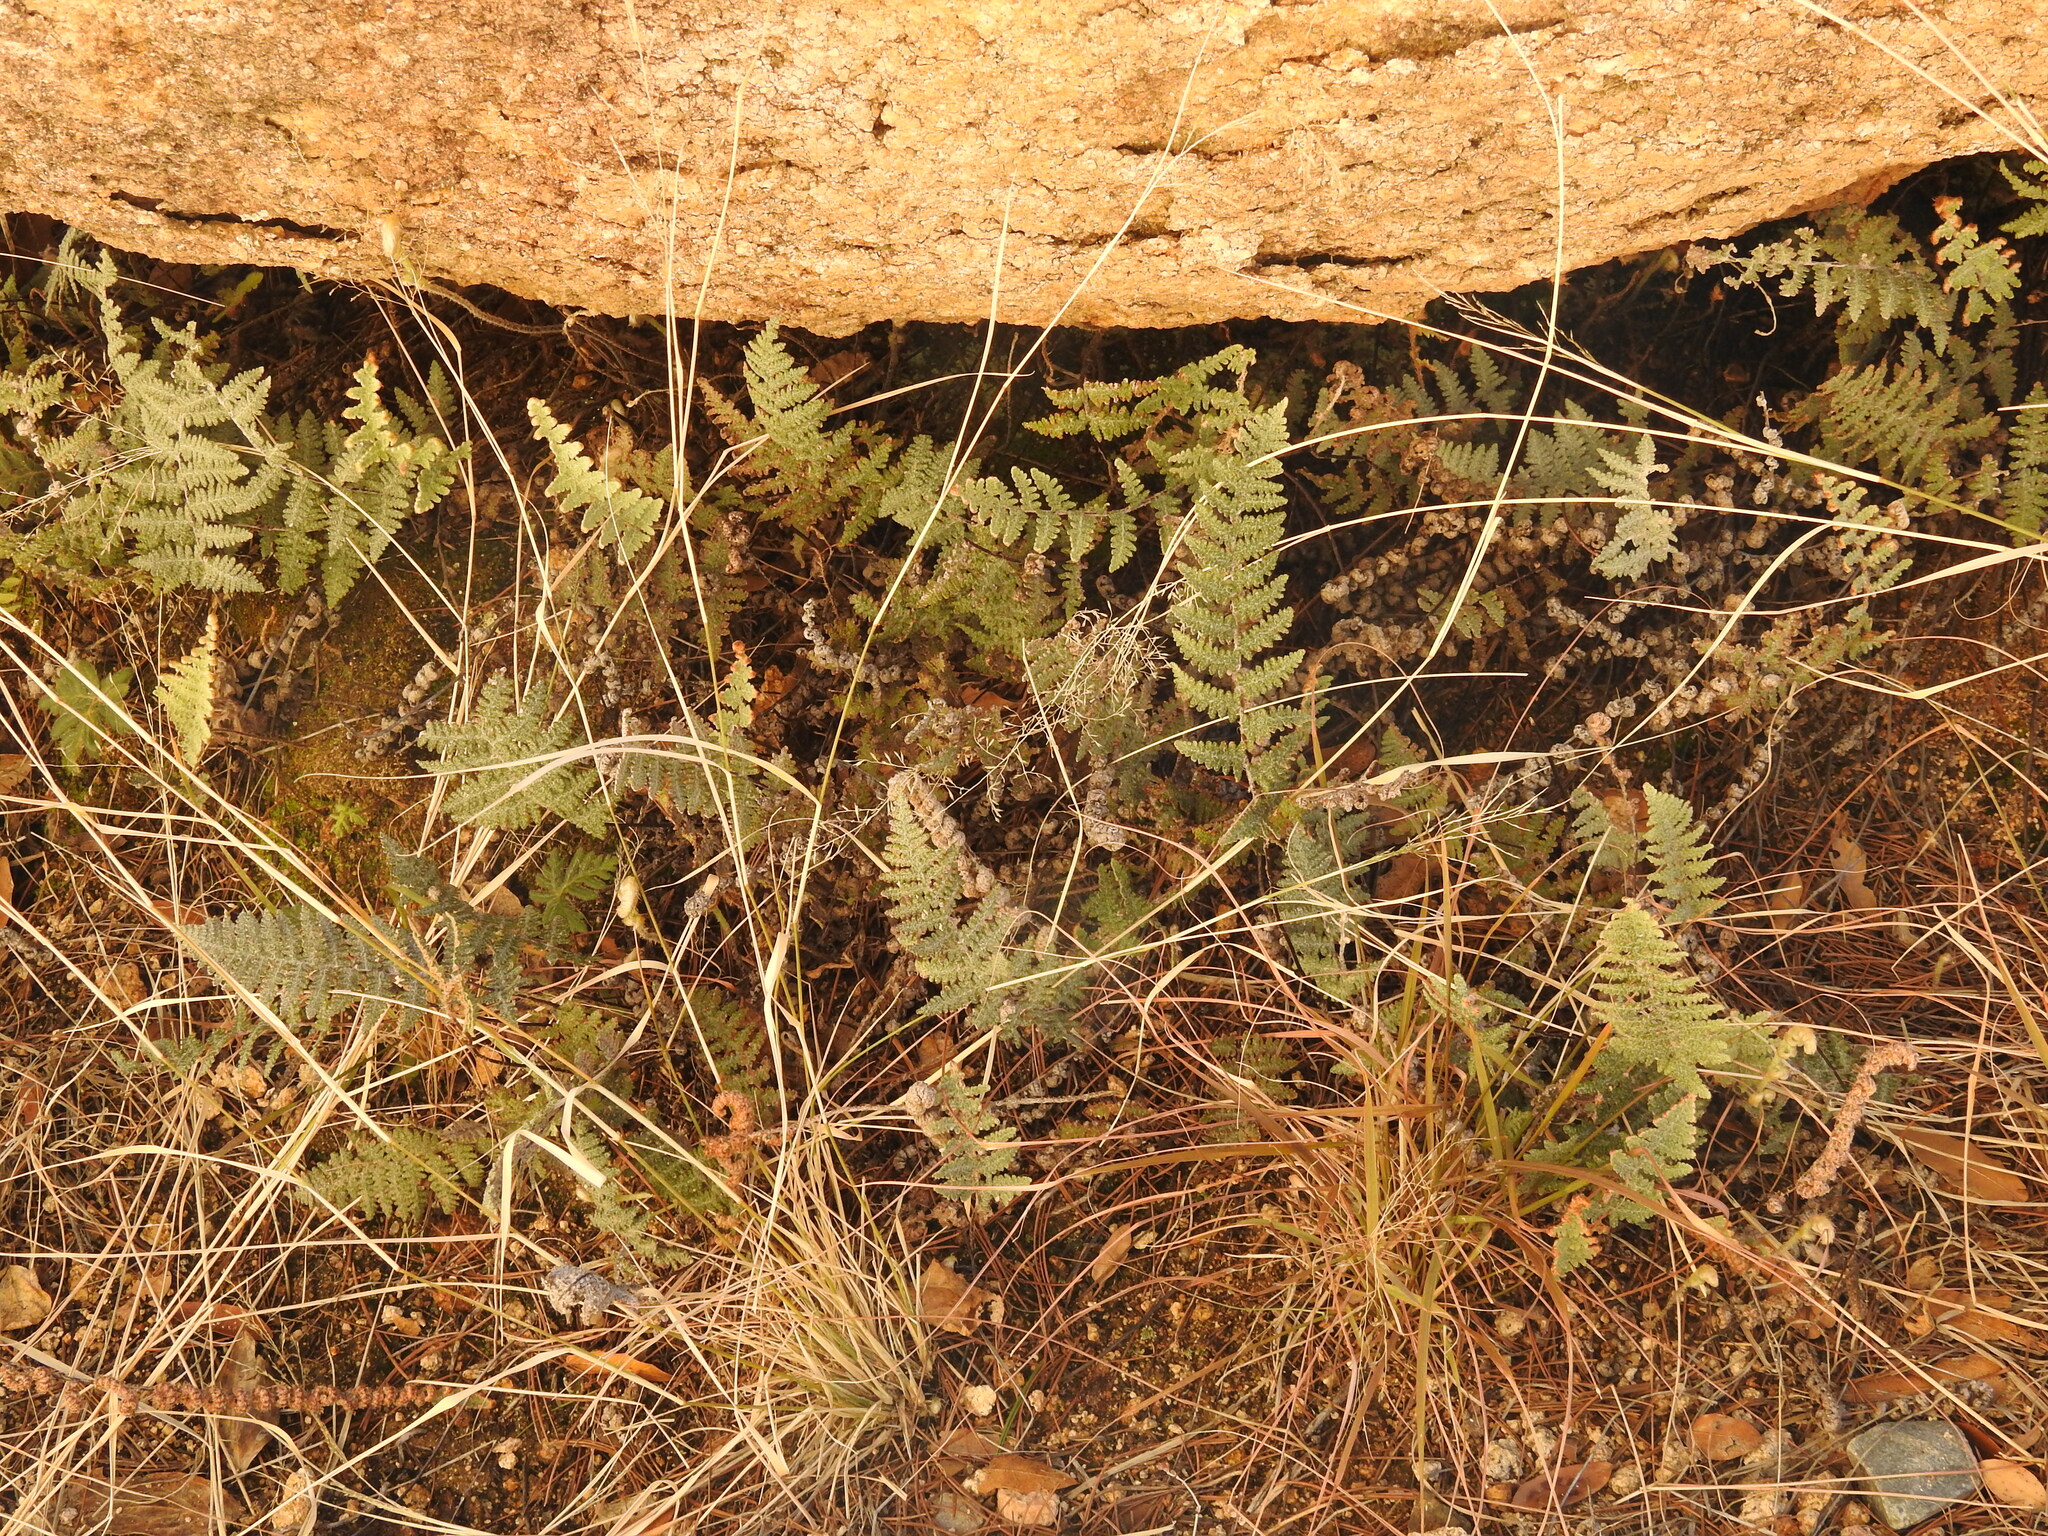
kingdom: Plantae
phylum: Tracheophyta
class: Polypodiopsida
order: Polypodiales
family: Pteridaceae
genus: Myriopteris
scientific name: Myriopteris lindheimeri
